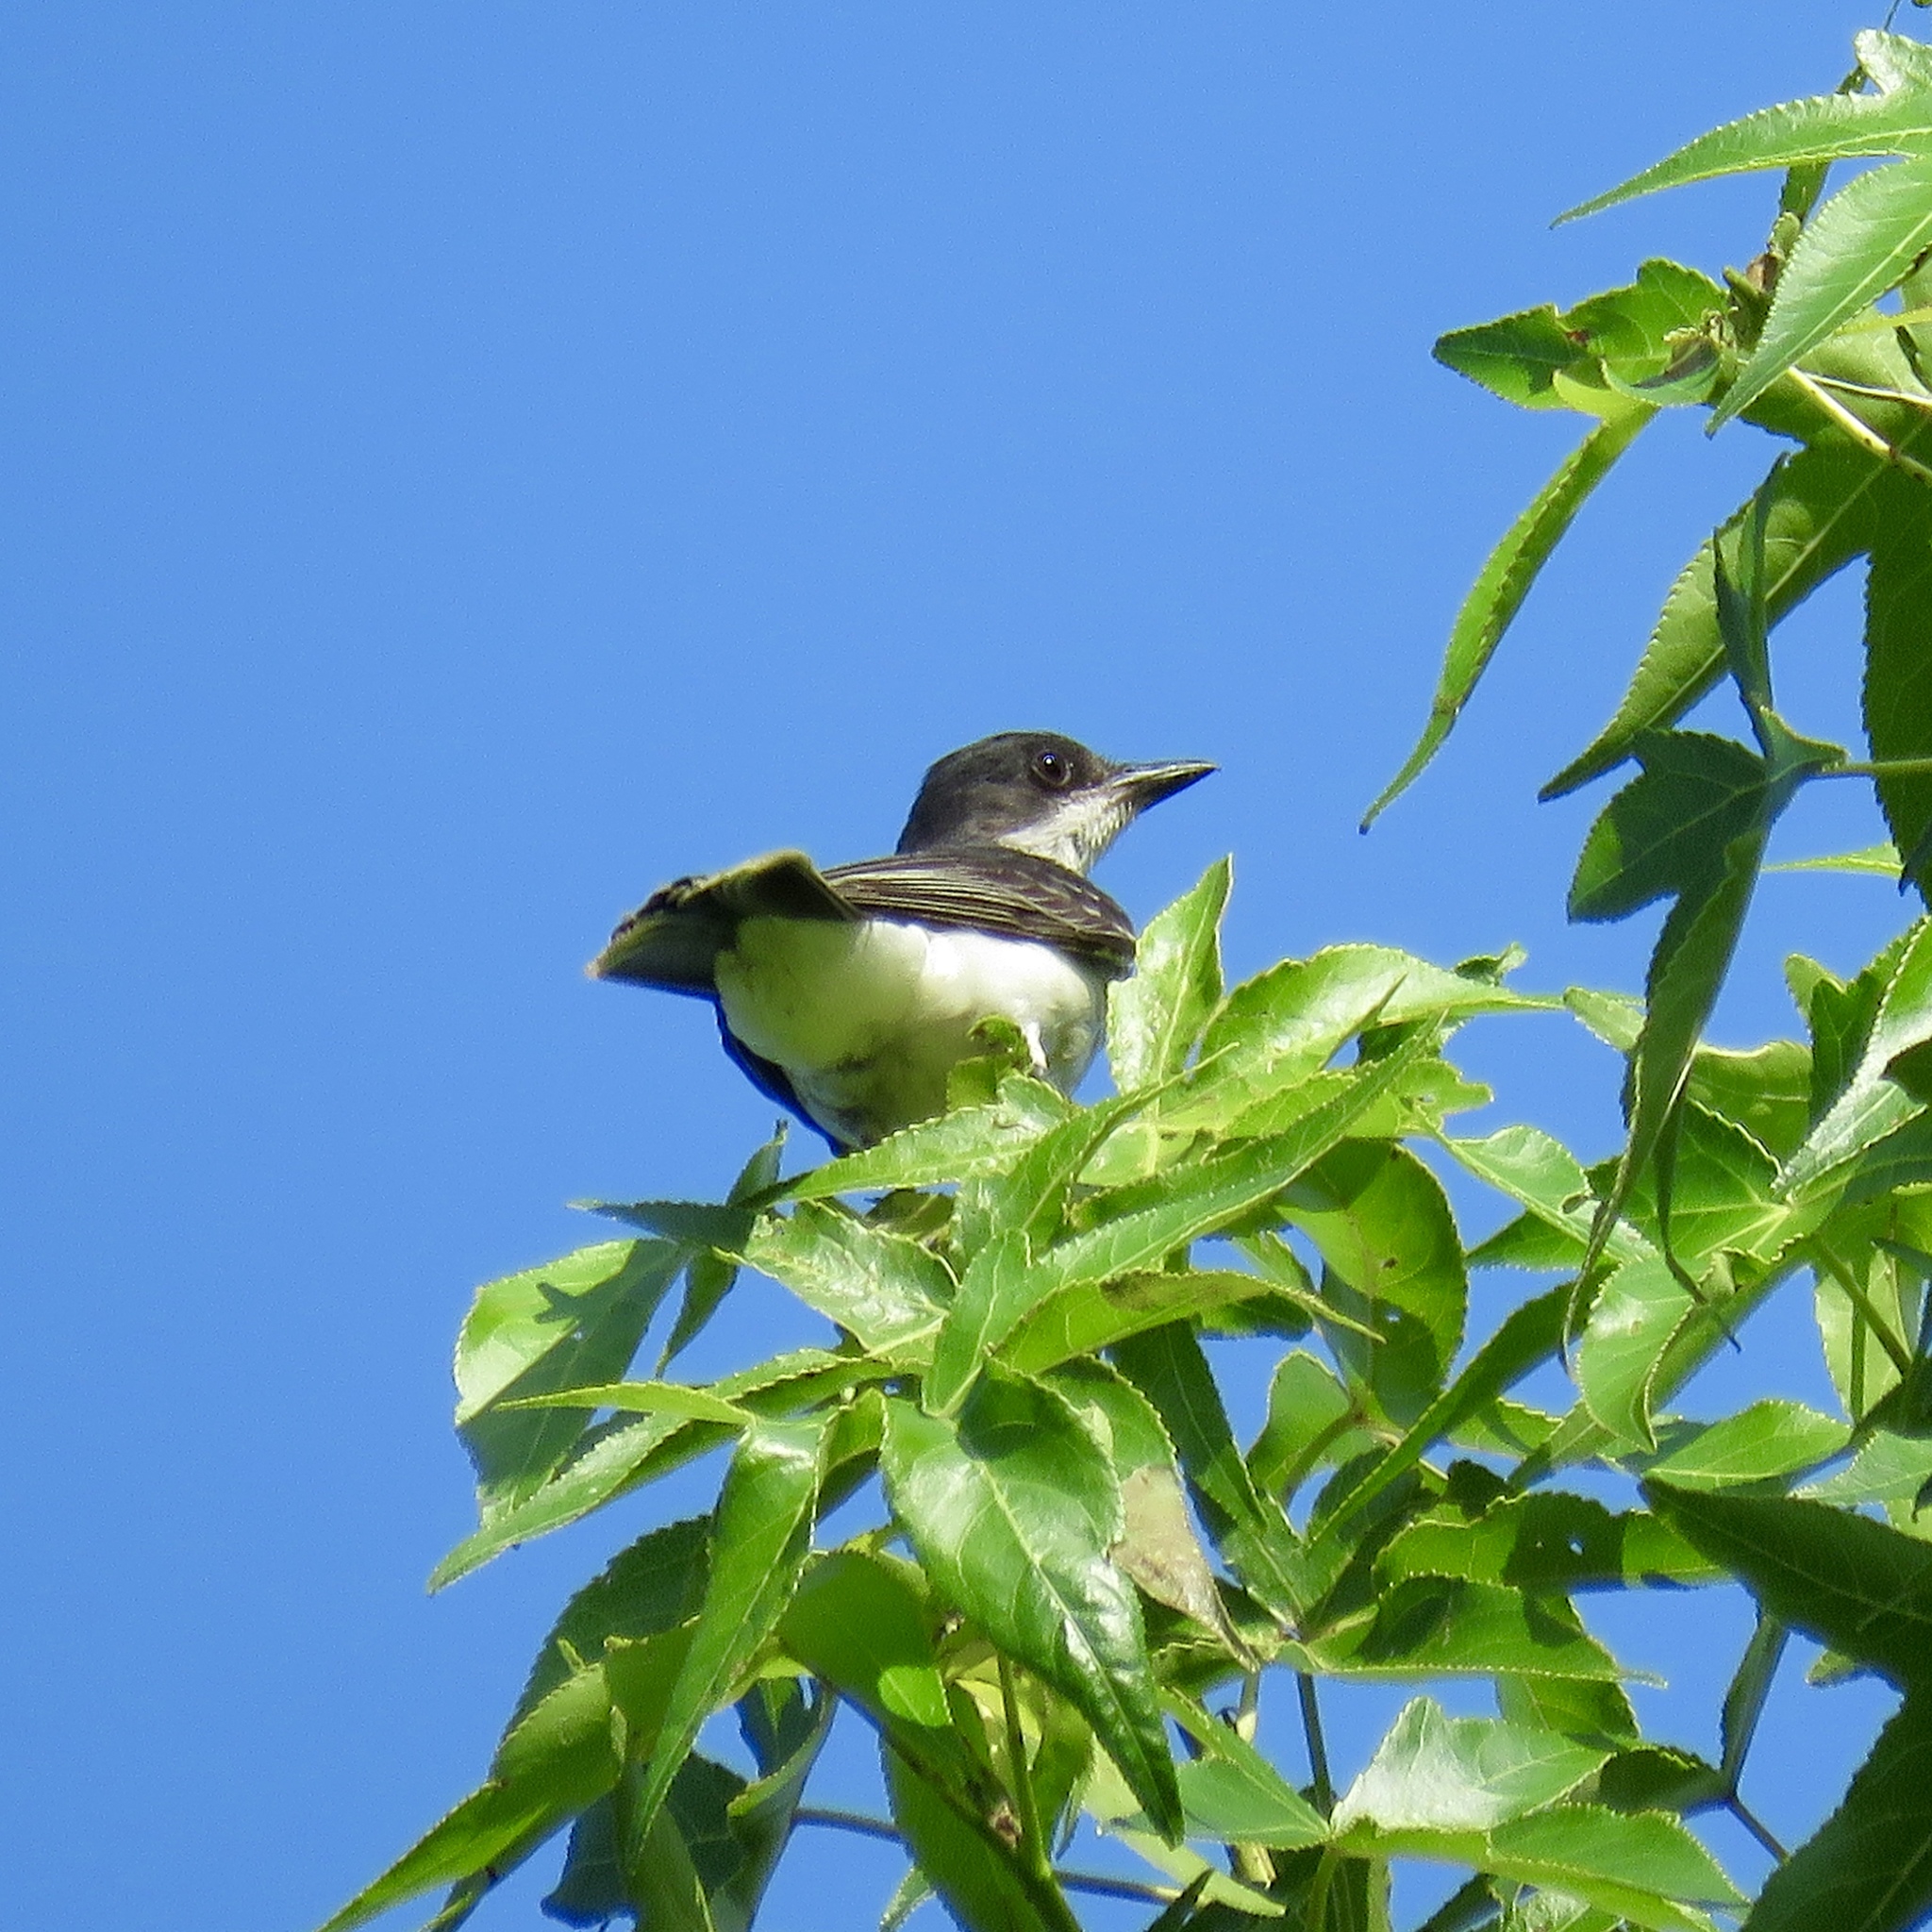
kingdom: Animalia
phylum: Chordata
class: Aves
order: Passeriformes
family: Tyrannidae
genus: Tyrannus
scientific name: Tyrannus tyrannus
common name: Eastern kingbird
